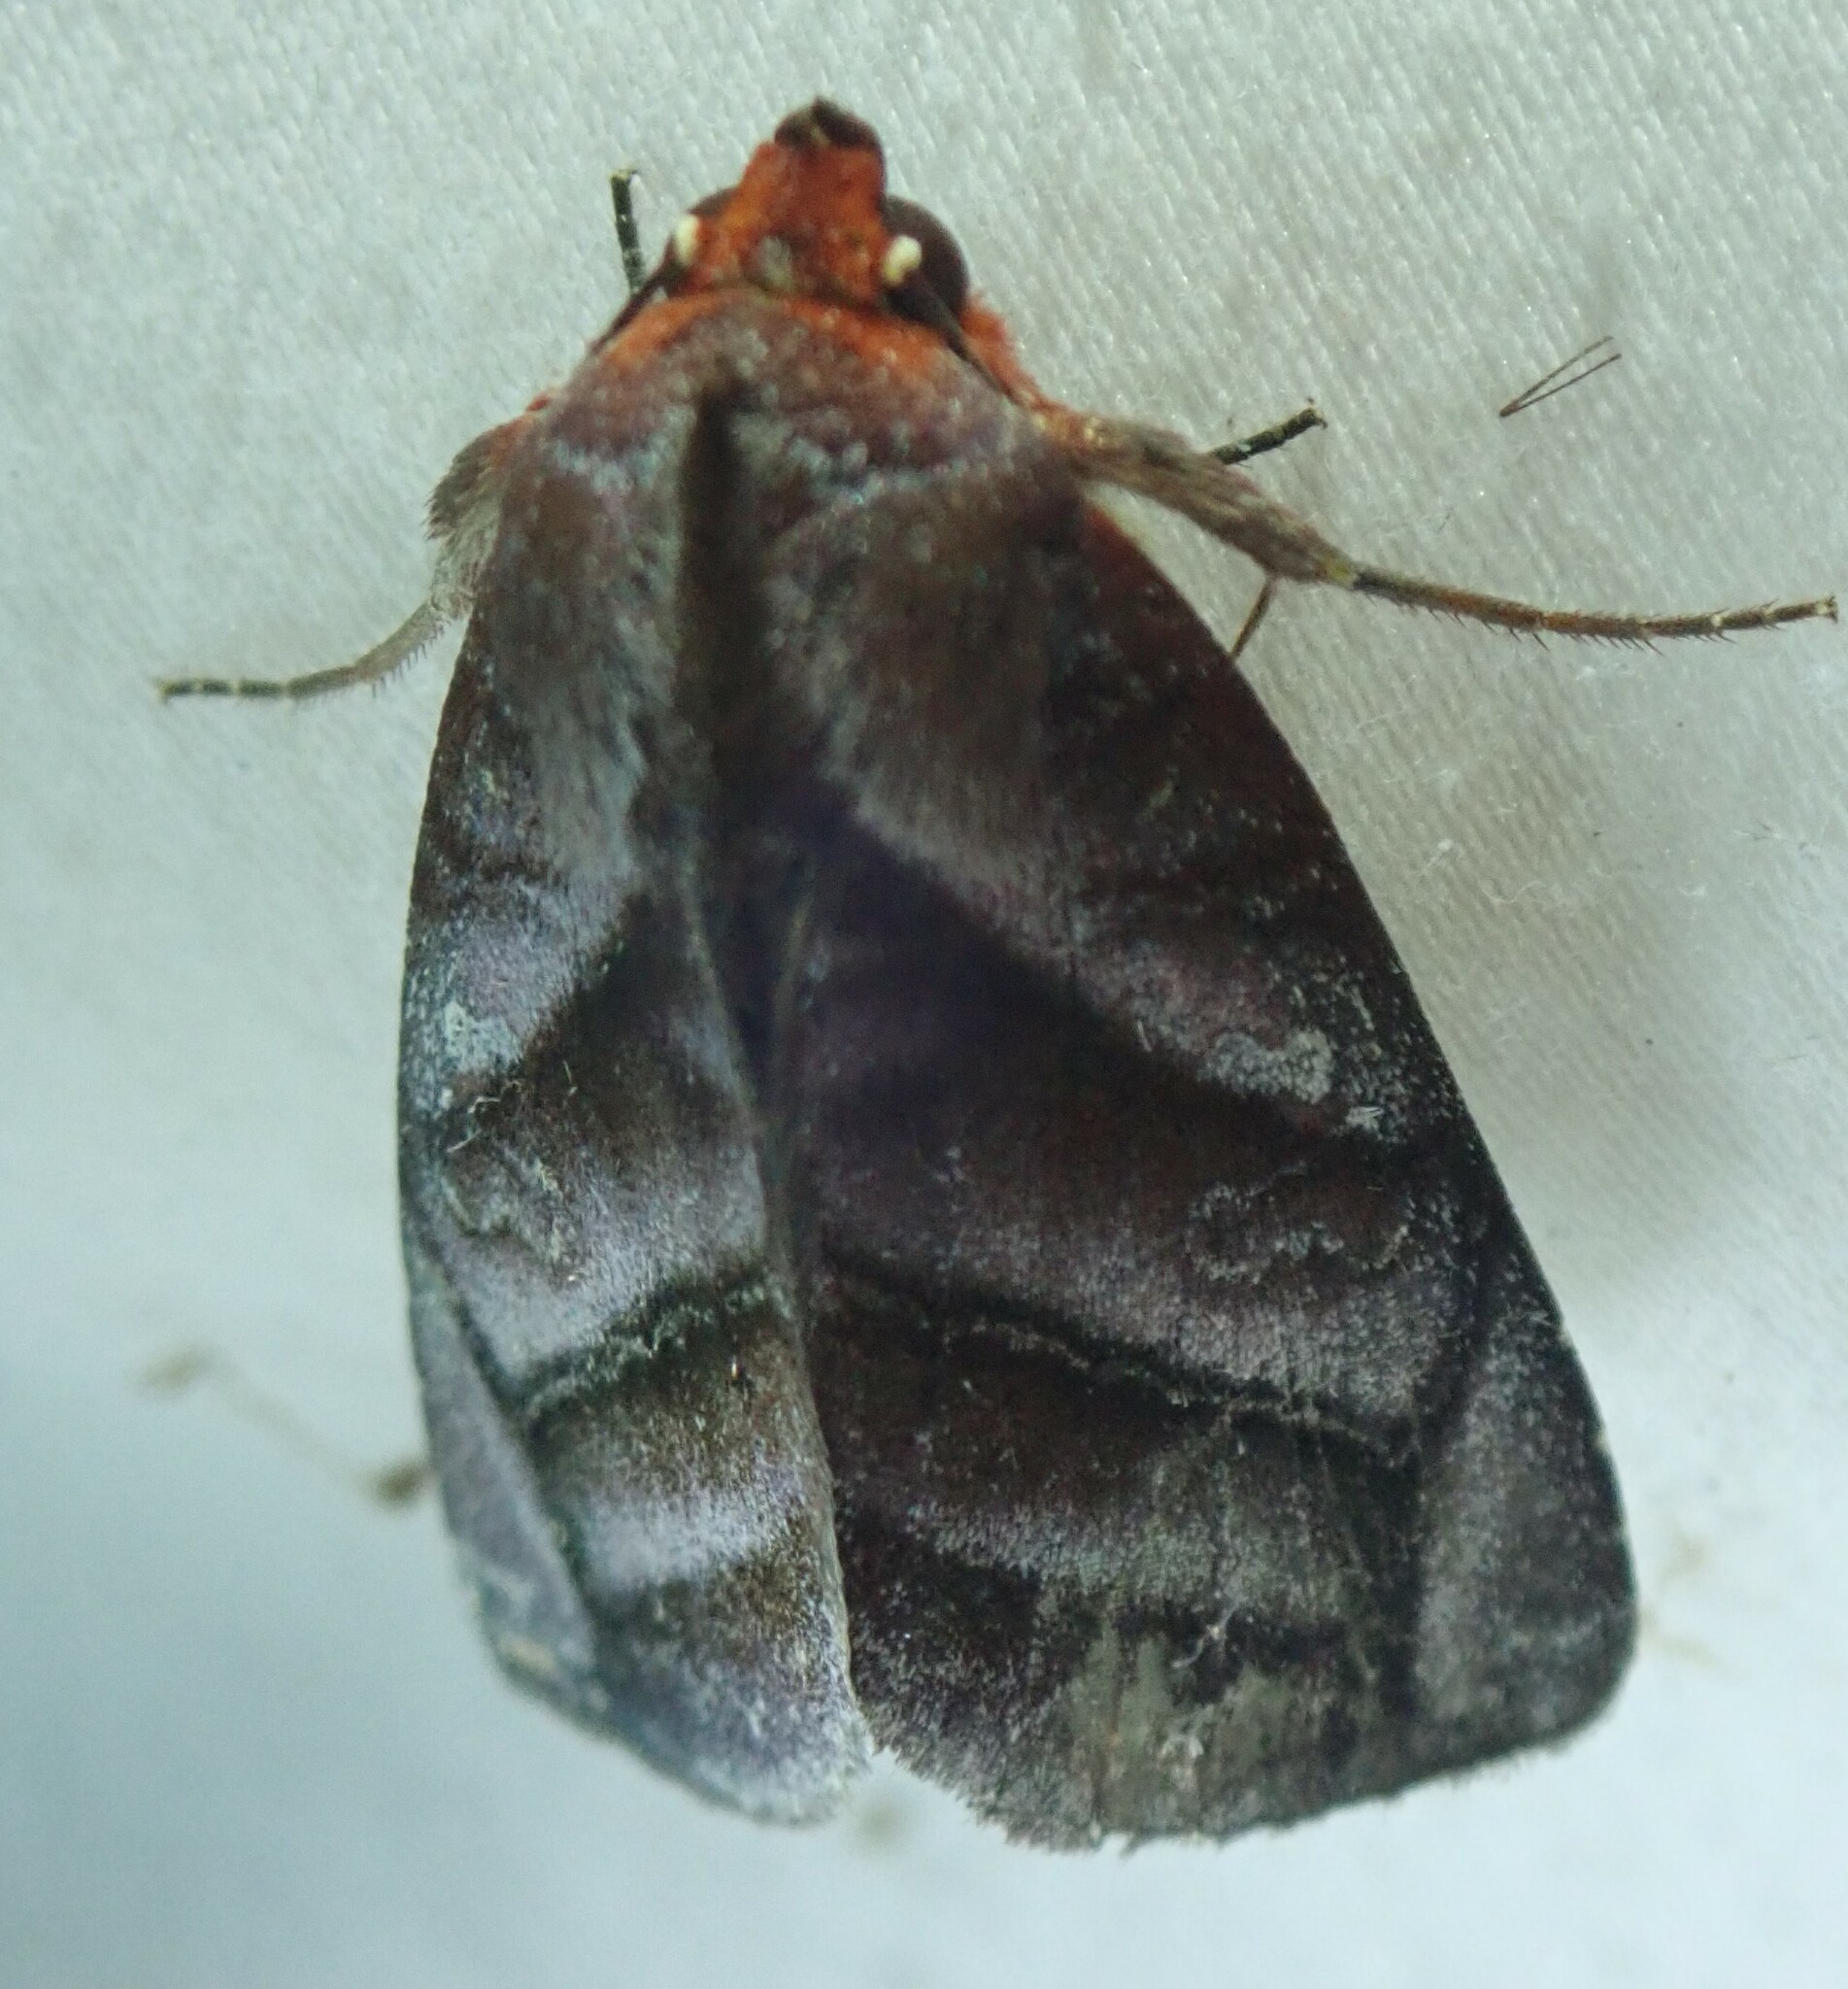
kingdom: Animalia
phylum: Arthropoda
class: Insecta
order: Lepidoptera
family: Erebidae
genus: Hemicephalis
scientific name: Hemicephalis paulina
